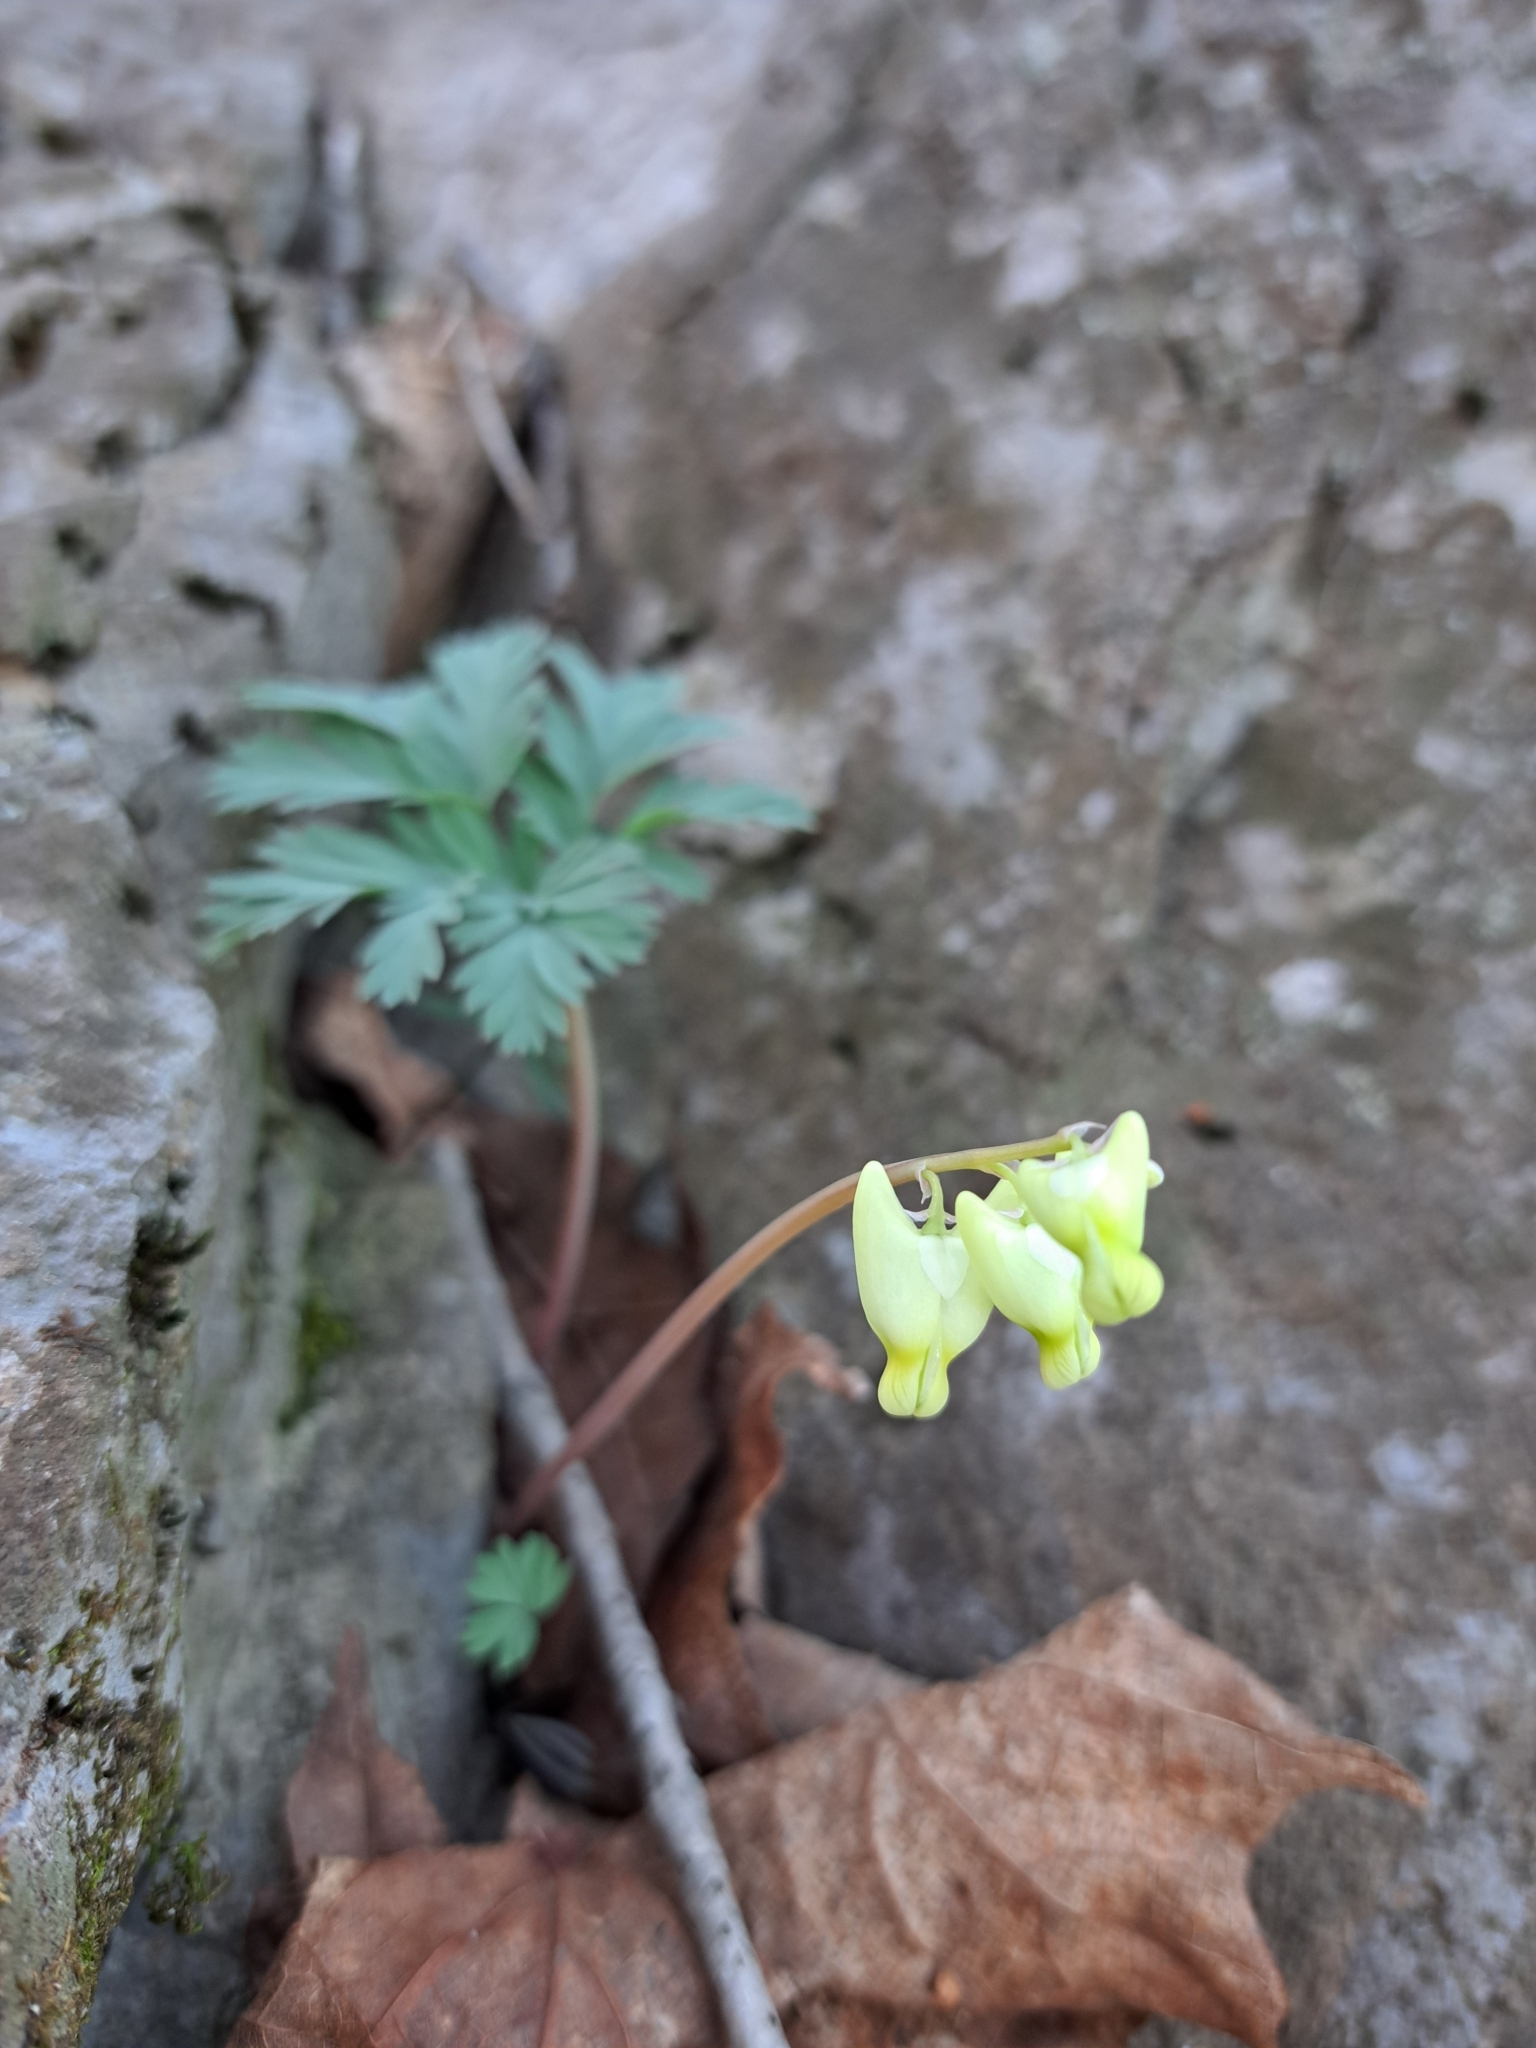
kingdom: Plantae
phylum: Tracheophyta
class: Magnoliopsida
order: Ranunculales
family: Papaveraceae
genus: Dicentra
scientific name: Dicentra cucullaria
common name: Dutchman's breeches
